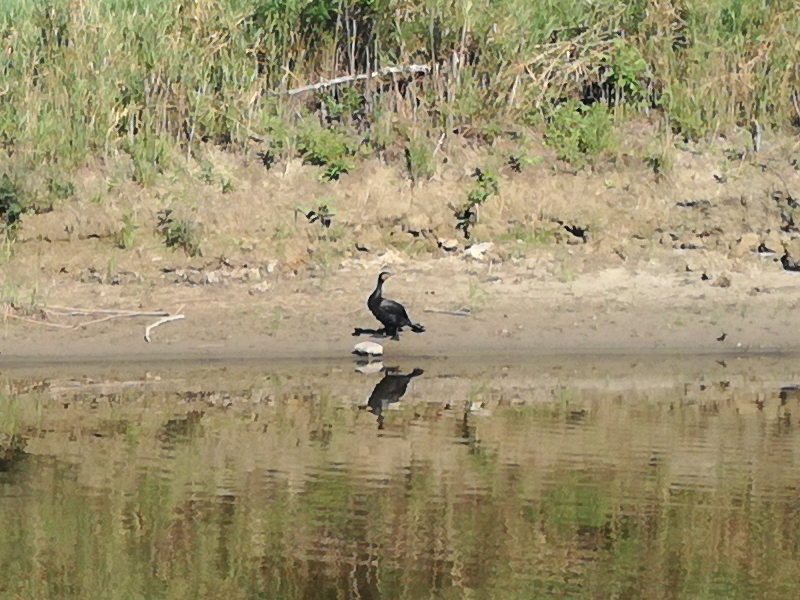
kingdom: Animalia
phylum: Chordata
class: Aves
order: Suliformes
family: Phalacrocoracidae
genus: Phalacrocorax
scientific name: Phalacrocorax carbo
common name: Great cormorant
